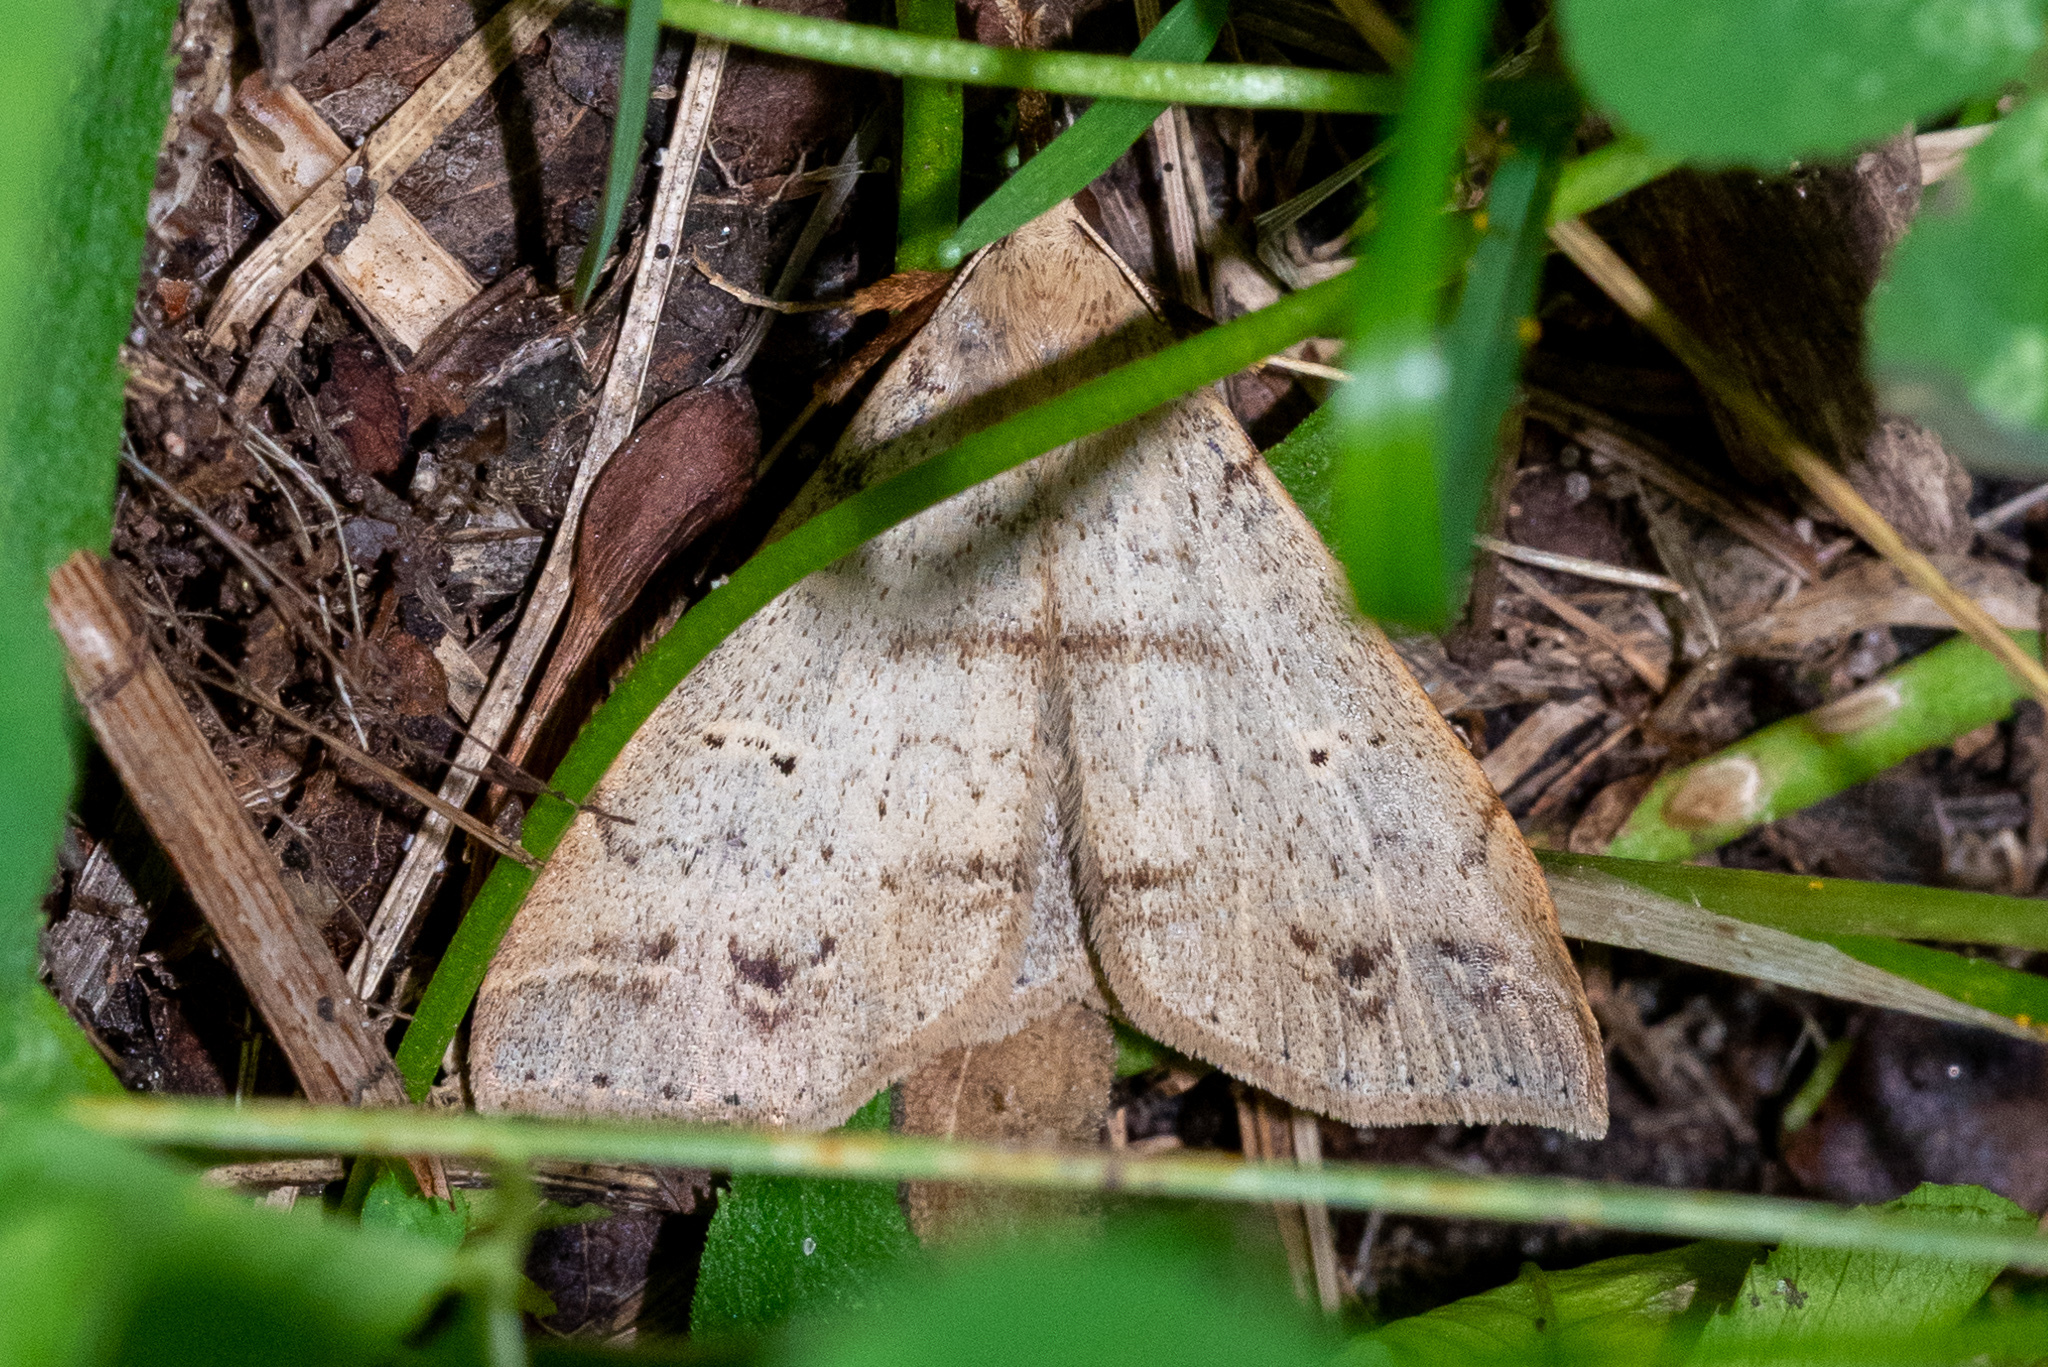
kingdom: Animalia
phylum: Arthropoda
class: Insecta
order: Lepidoptera
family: Erebidae
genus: Renia
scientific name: Renia discoloralis
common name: Discolored renia moth
